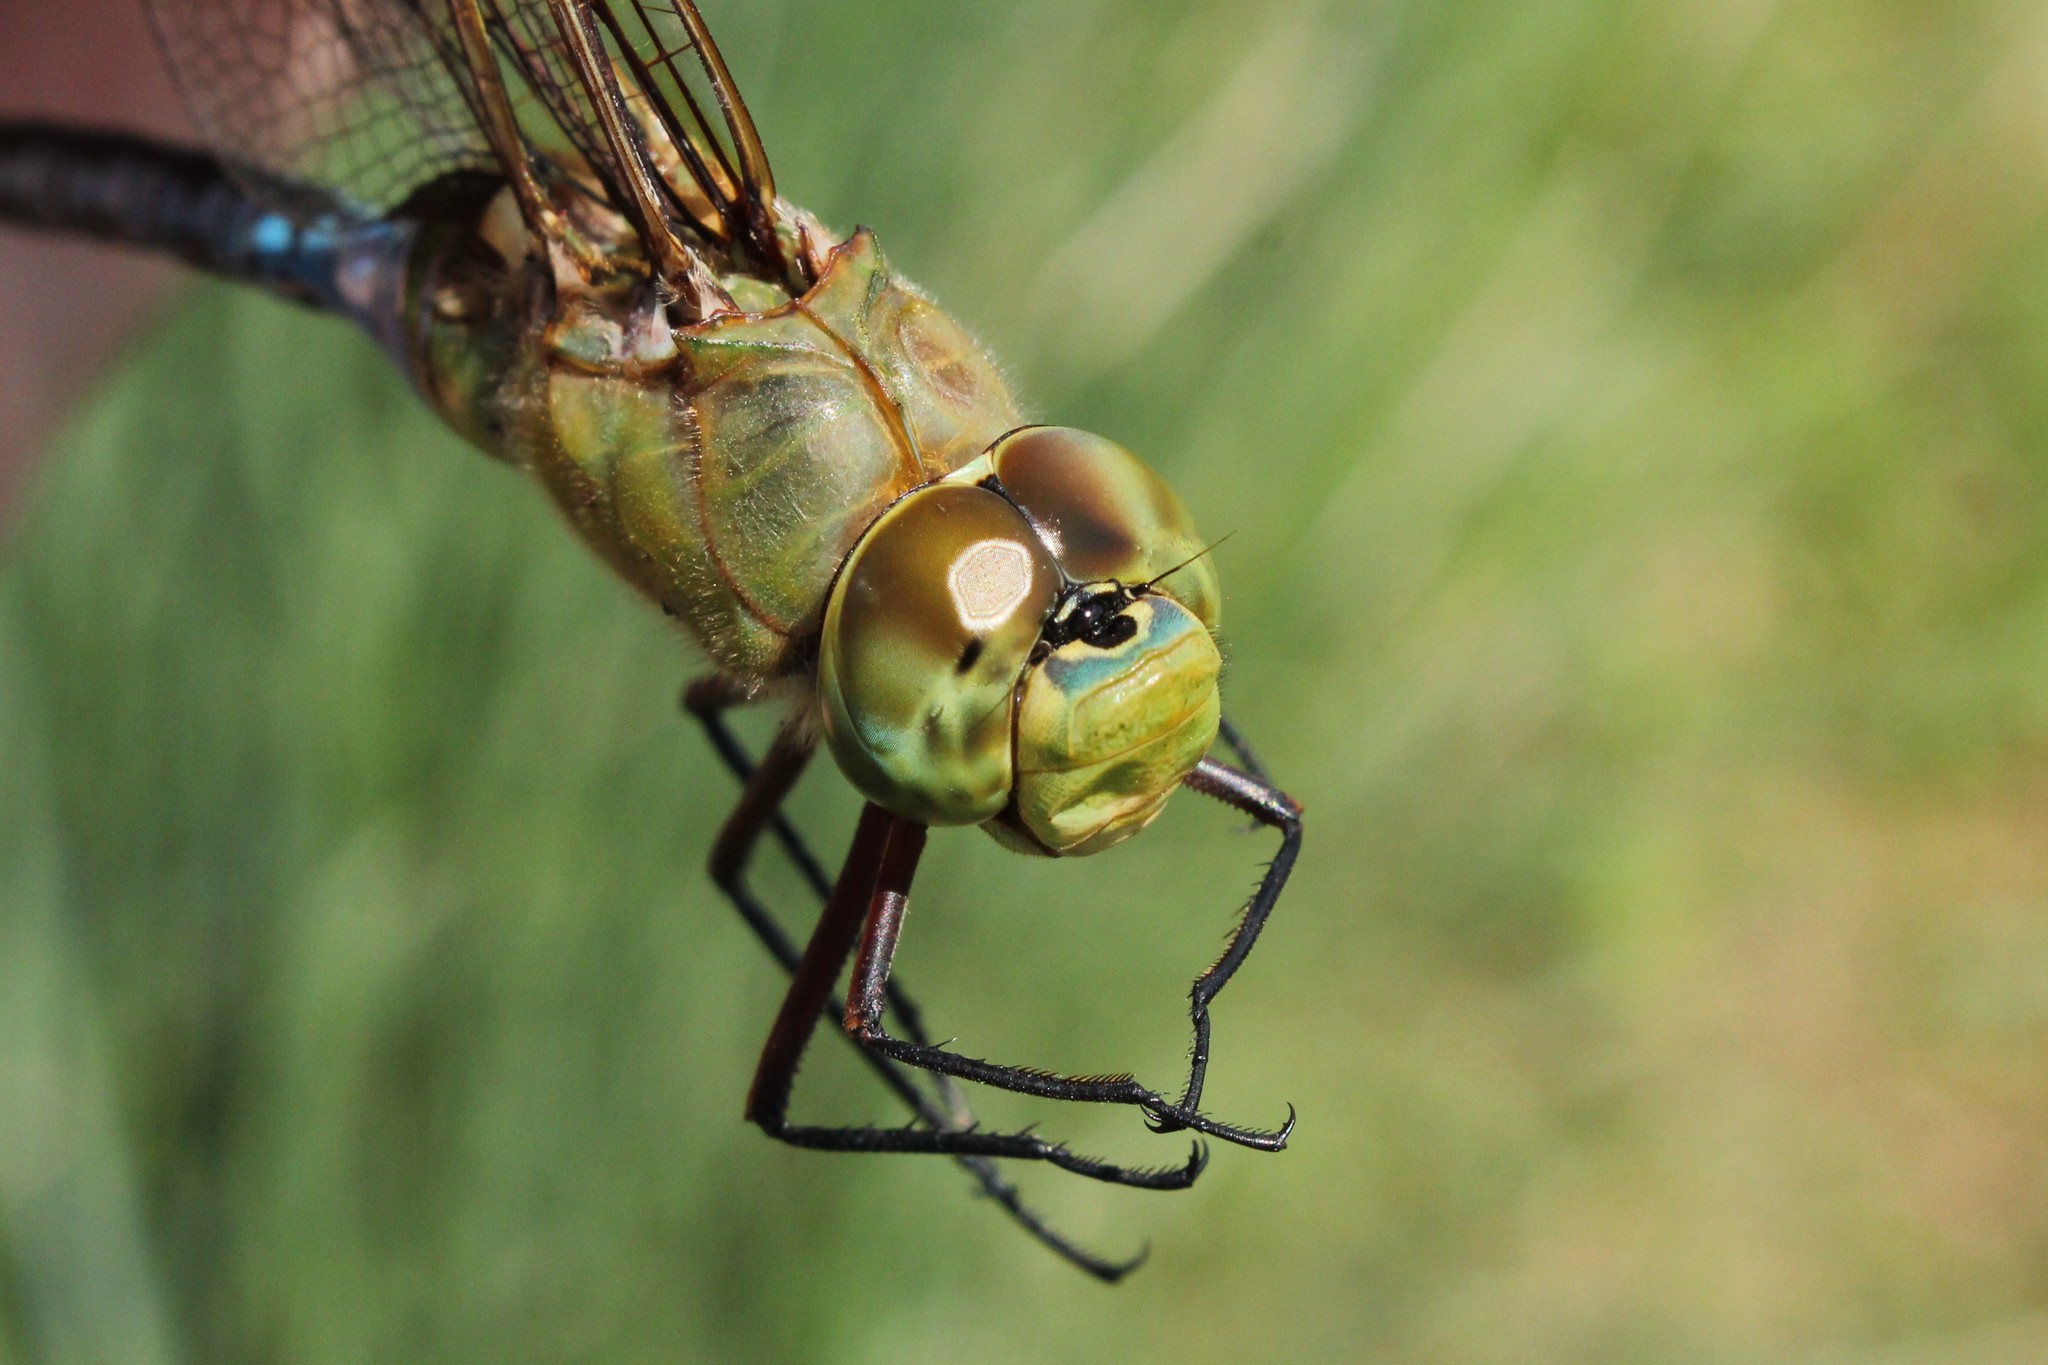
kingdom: Animalia
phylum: Arthropoda
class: Insecta
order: Odonata
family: Aeshnidae
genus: Anax
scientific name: Anax junius
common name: Common green darner
